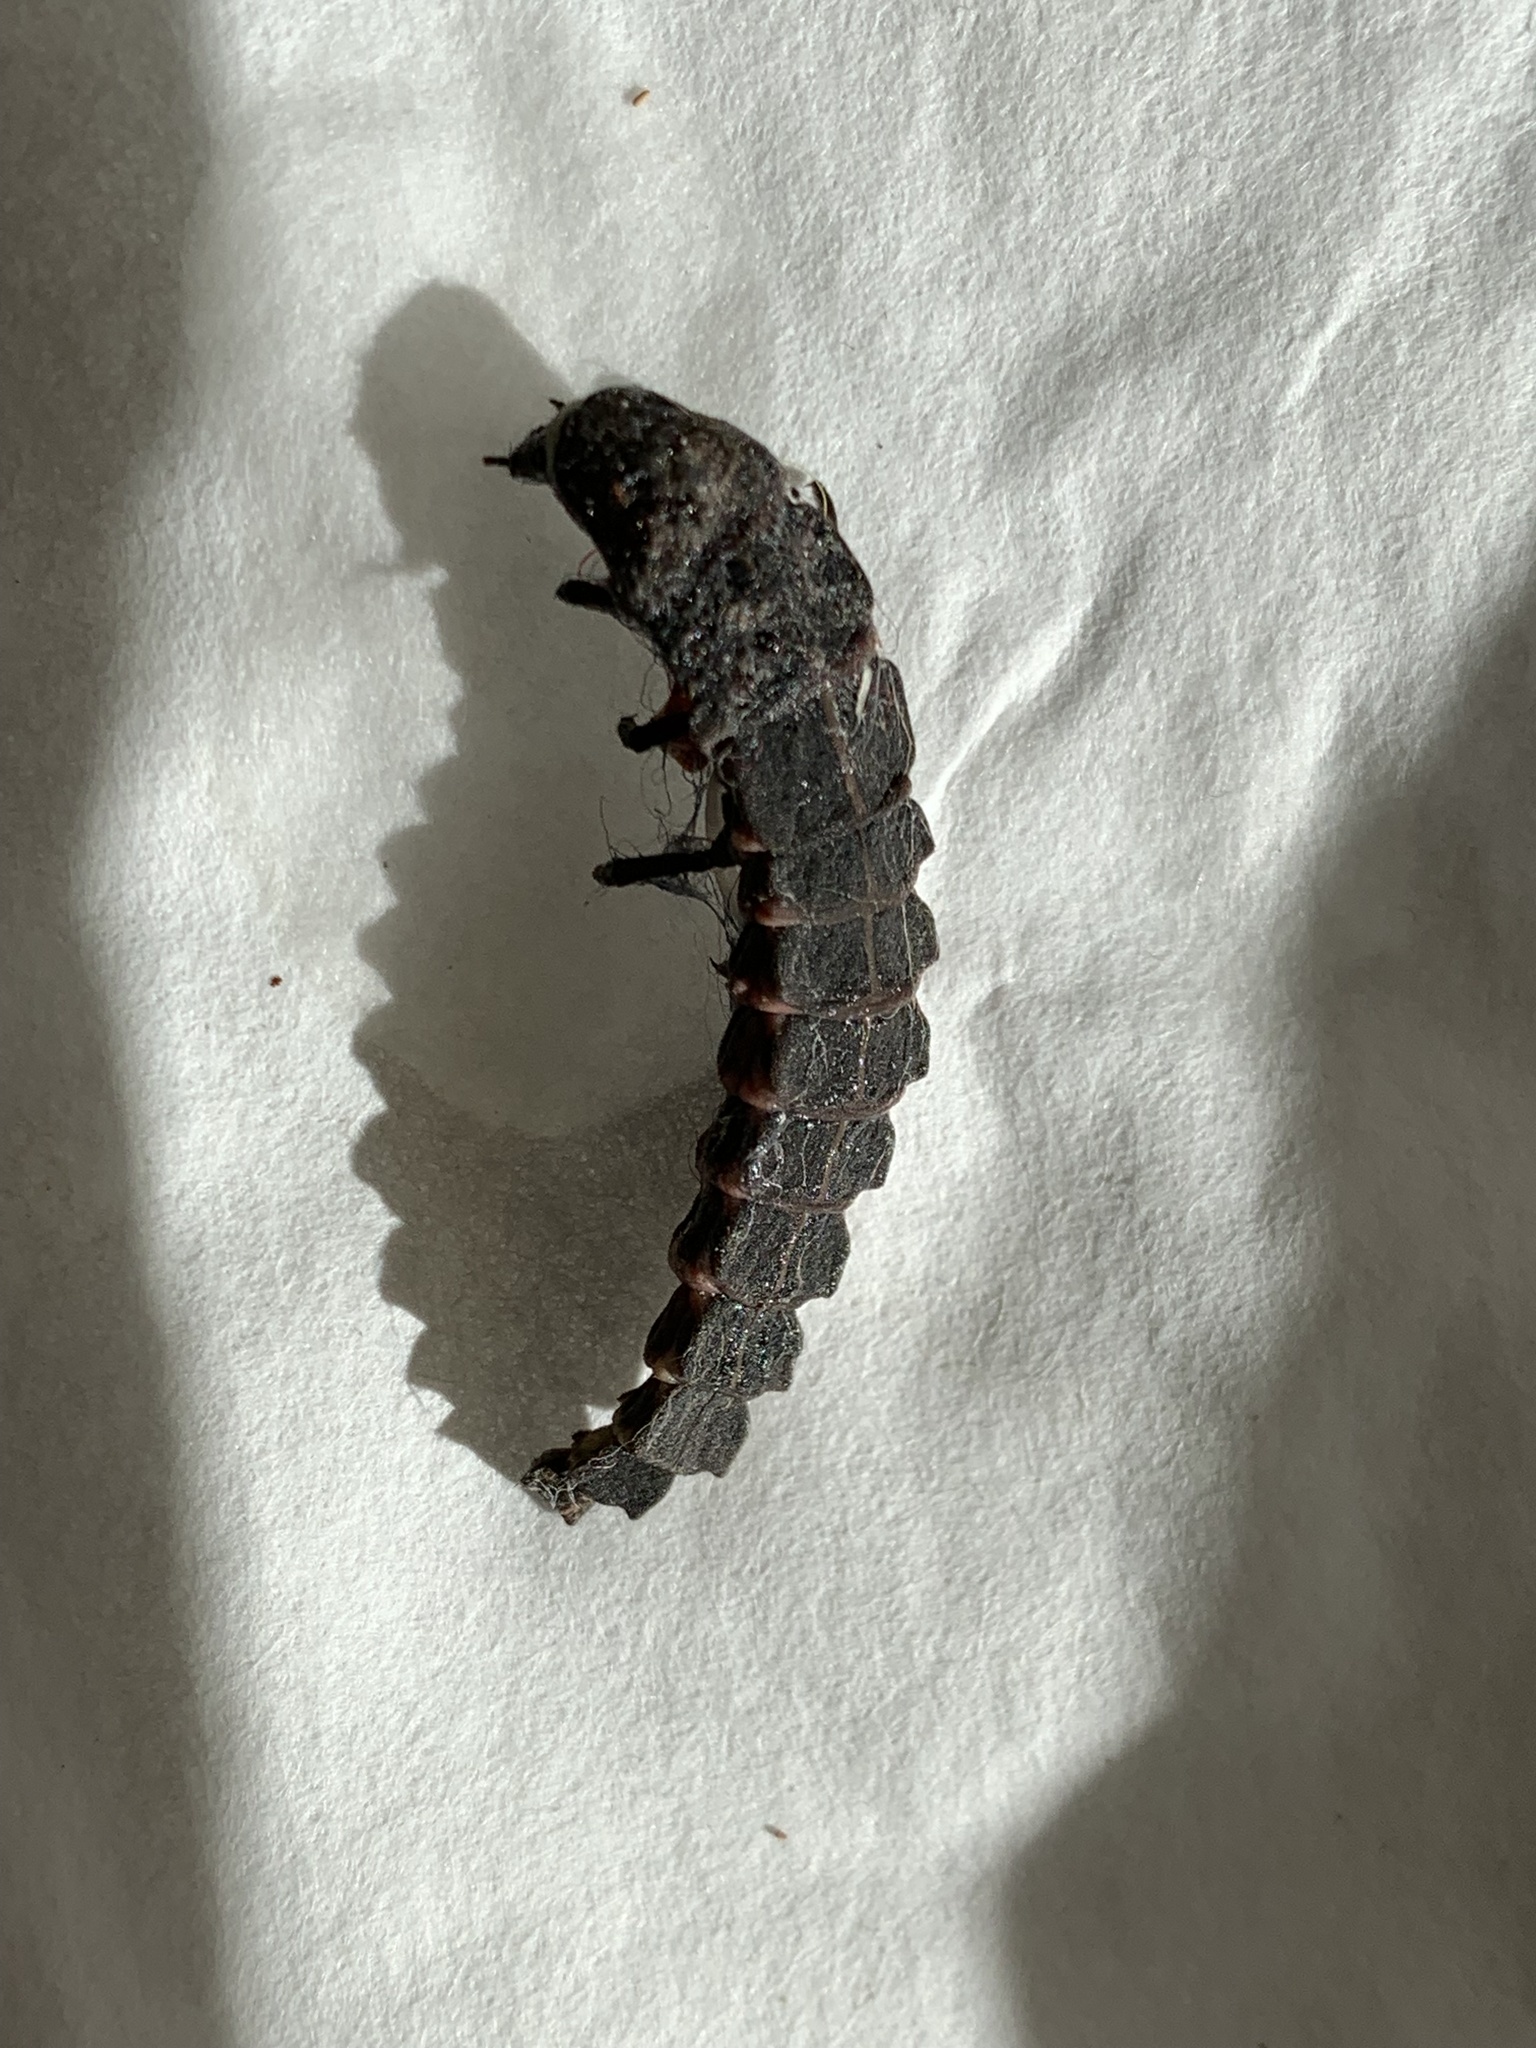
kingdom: Animalia
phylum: Arthropoda
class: Insecta
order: Coleoptera
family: Lampyridae
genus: Nyctophila
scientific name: Nyctophila reichii
